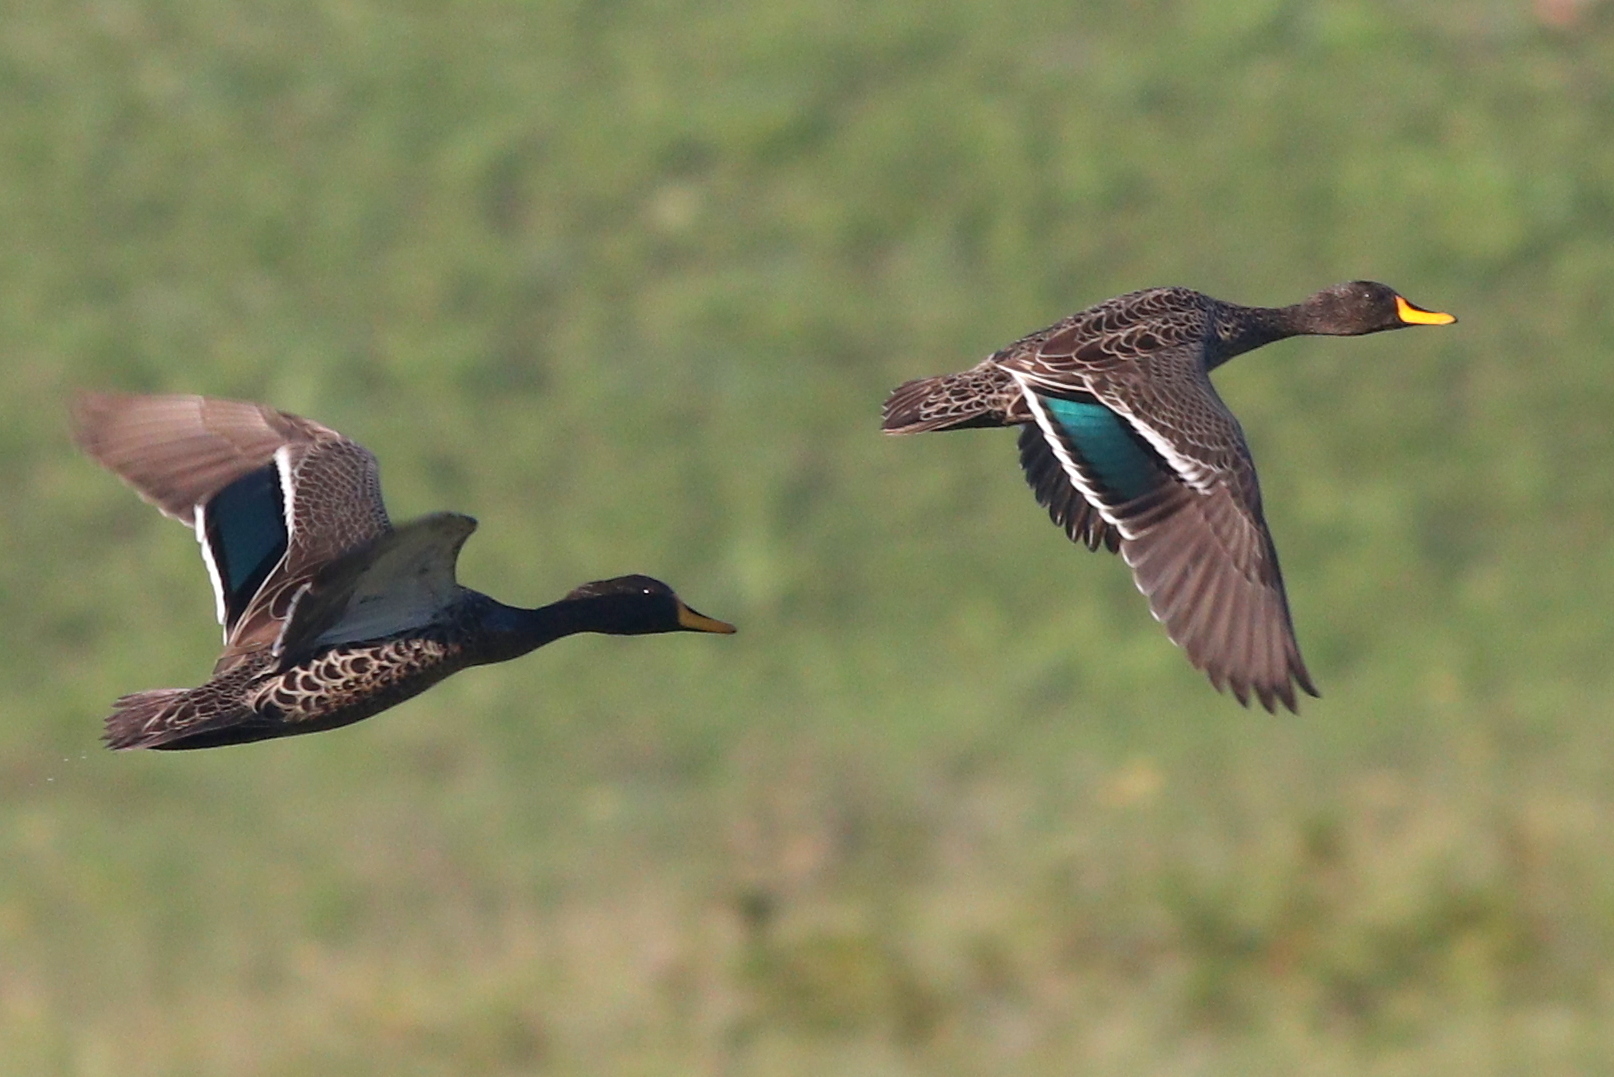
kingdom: Animalia
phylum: Chordata
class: Aves
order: Anseriformes
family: Anatidae
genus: Anas
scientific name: Anas undulata
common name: Yellow-billed duck
